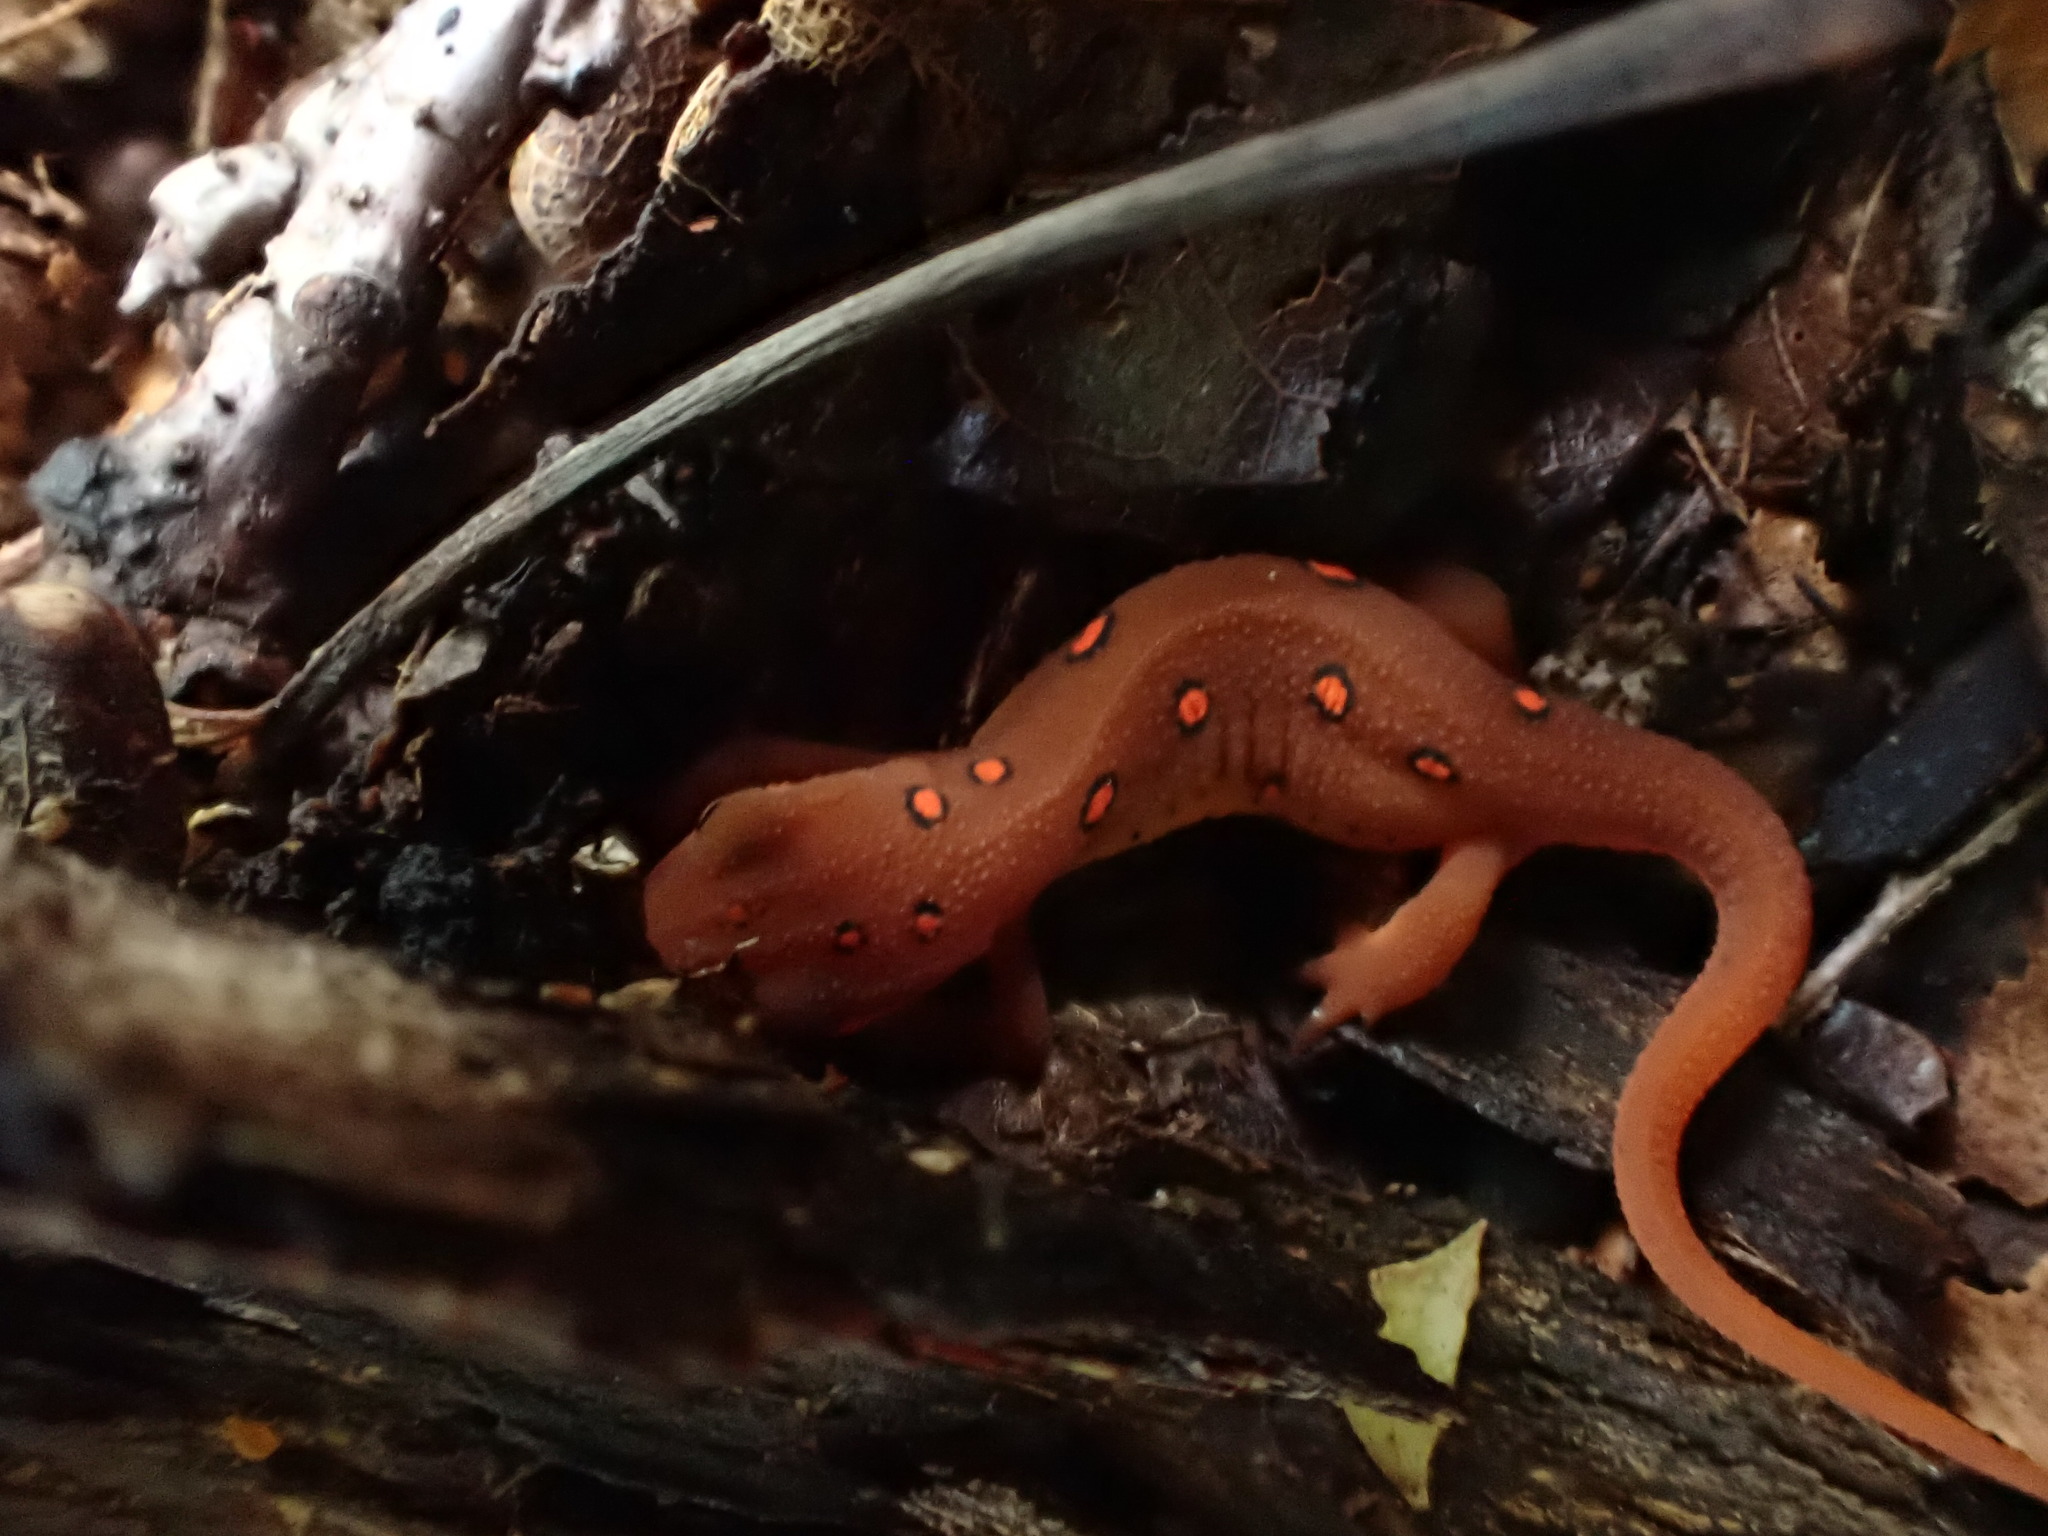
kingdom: Animalia
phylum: Chordata
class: Amphibia
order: Caudata
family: Salamandridae
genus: Notophthalmus
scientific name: Notophthalmus viridescens
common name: Eastern newt
